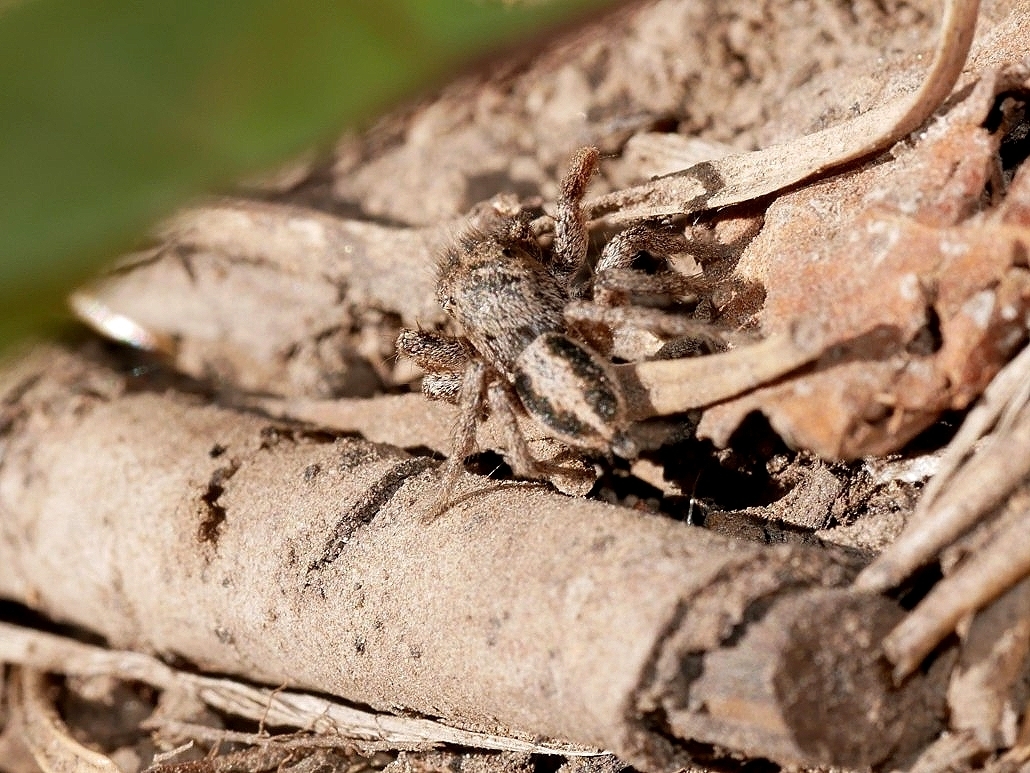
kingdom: Animalia
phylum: Arthropoda
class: Arachnida
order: Araneae
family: Salticidae
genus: Habronattus
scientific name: Habronattus sansoni
